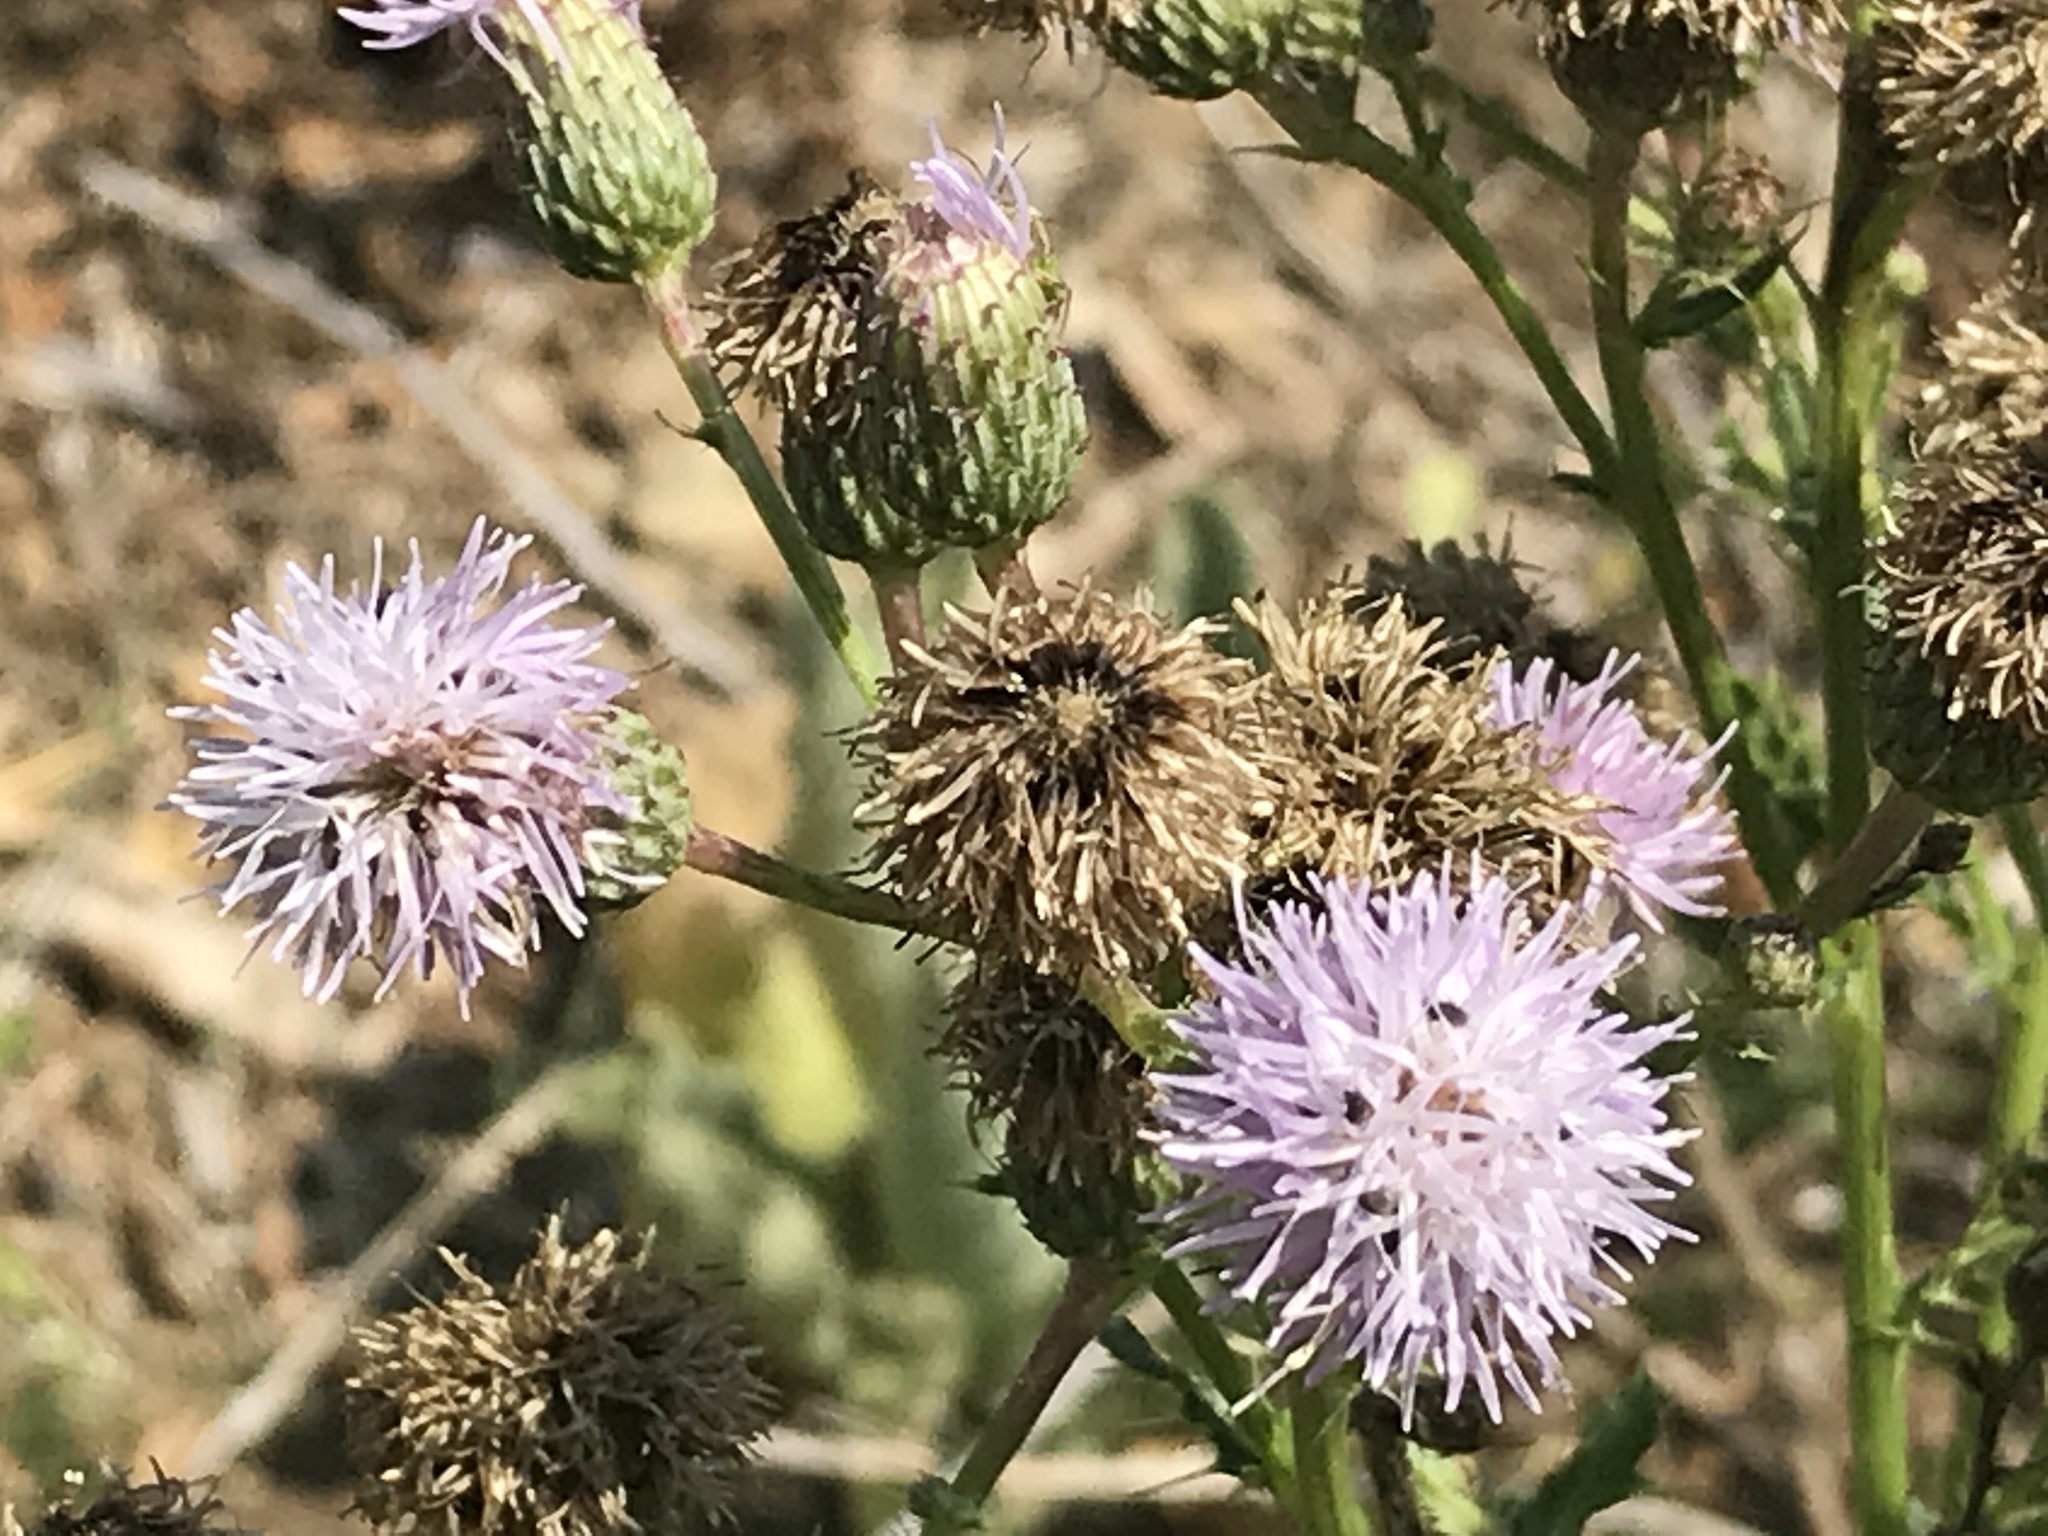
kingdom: Plantae
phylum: Tracheophyta
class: Magnoliopsida
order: Asterales
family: Asteraceae
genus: Cirsium
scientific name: Cirsium arvense
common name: Creeping thistle
